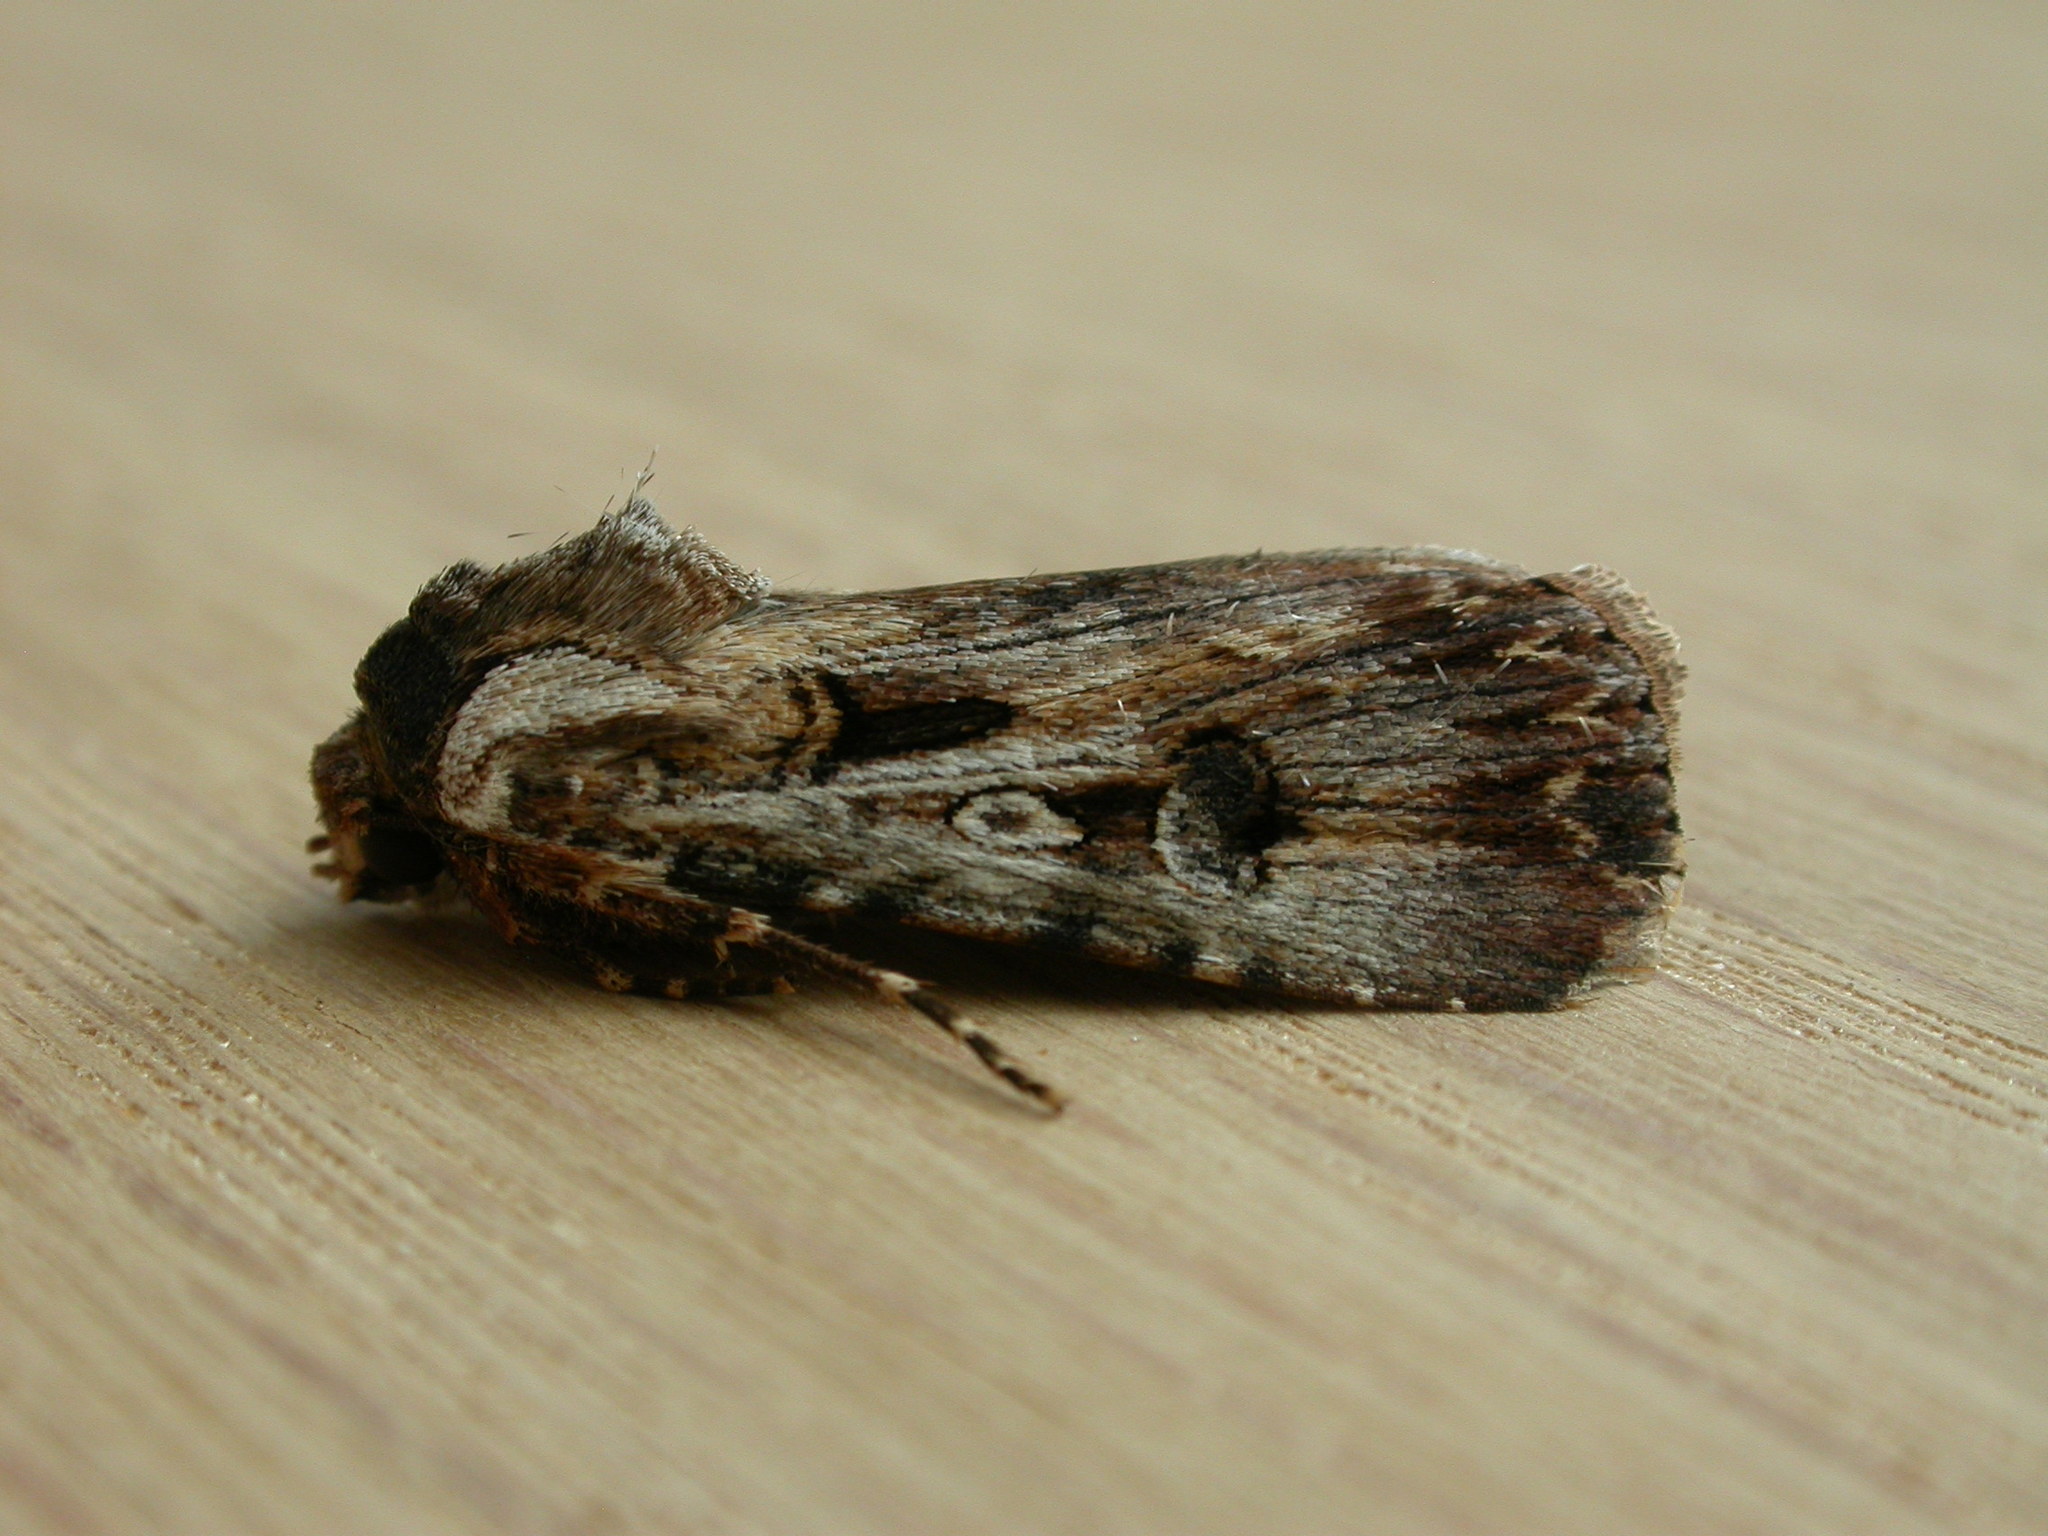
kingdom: Animalia
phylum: Arthropoda
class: Insecta
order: Lepidoptera
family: Noctuidae
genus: Agrotis
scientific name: Agrotis munda
